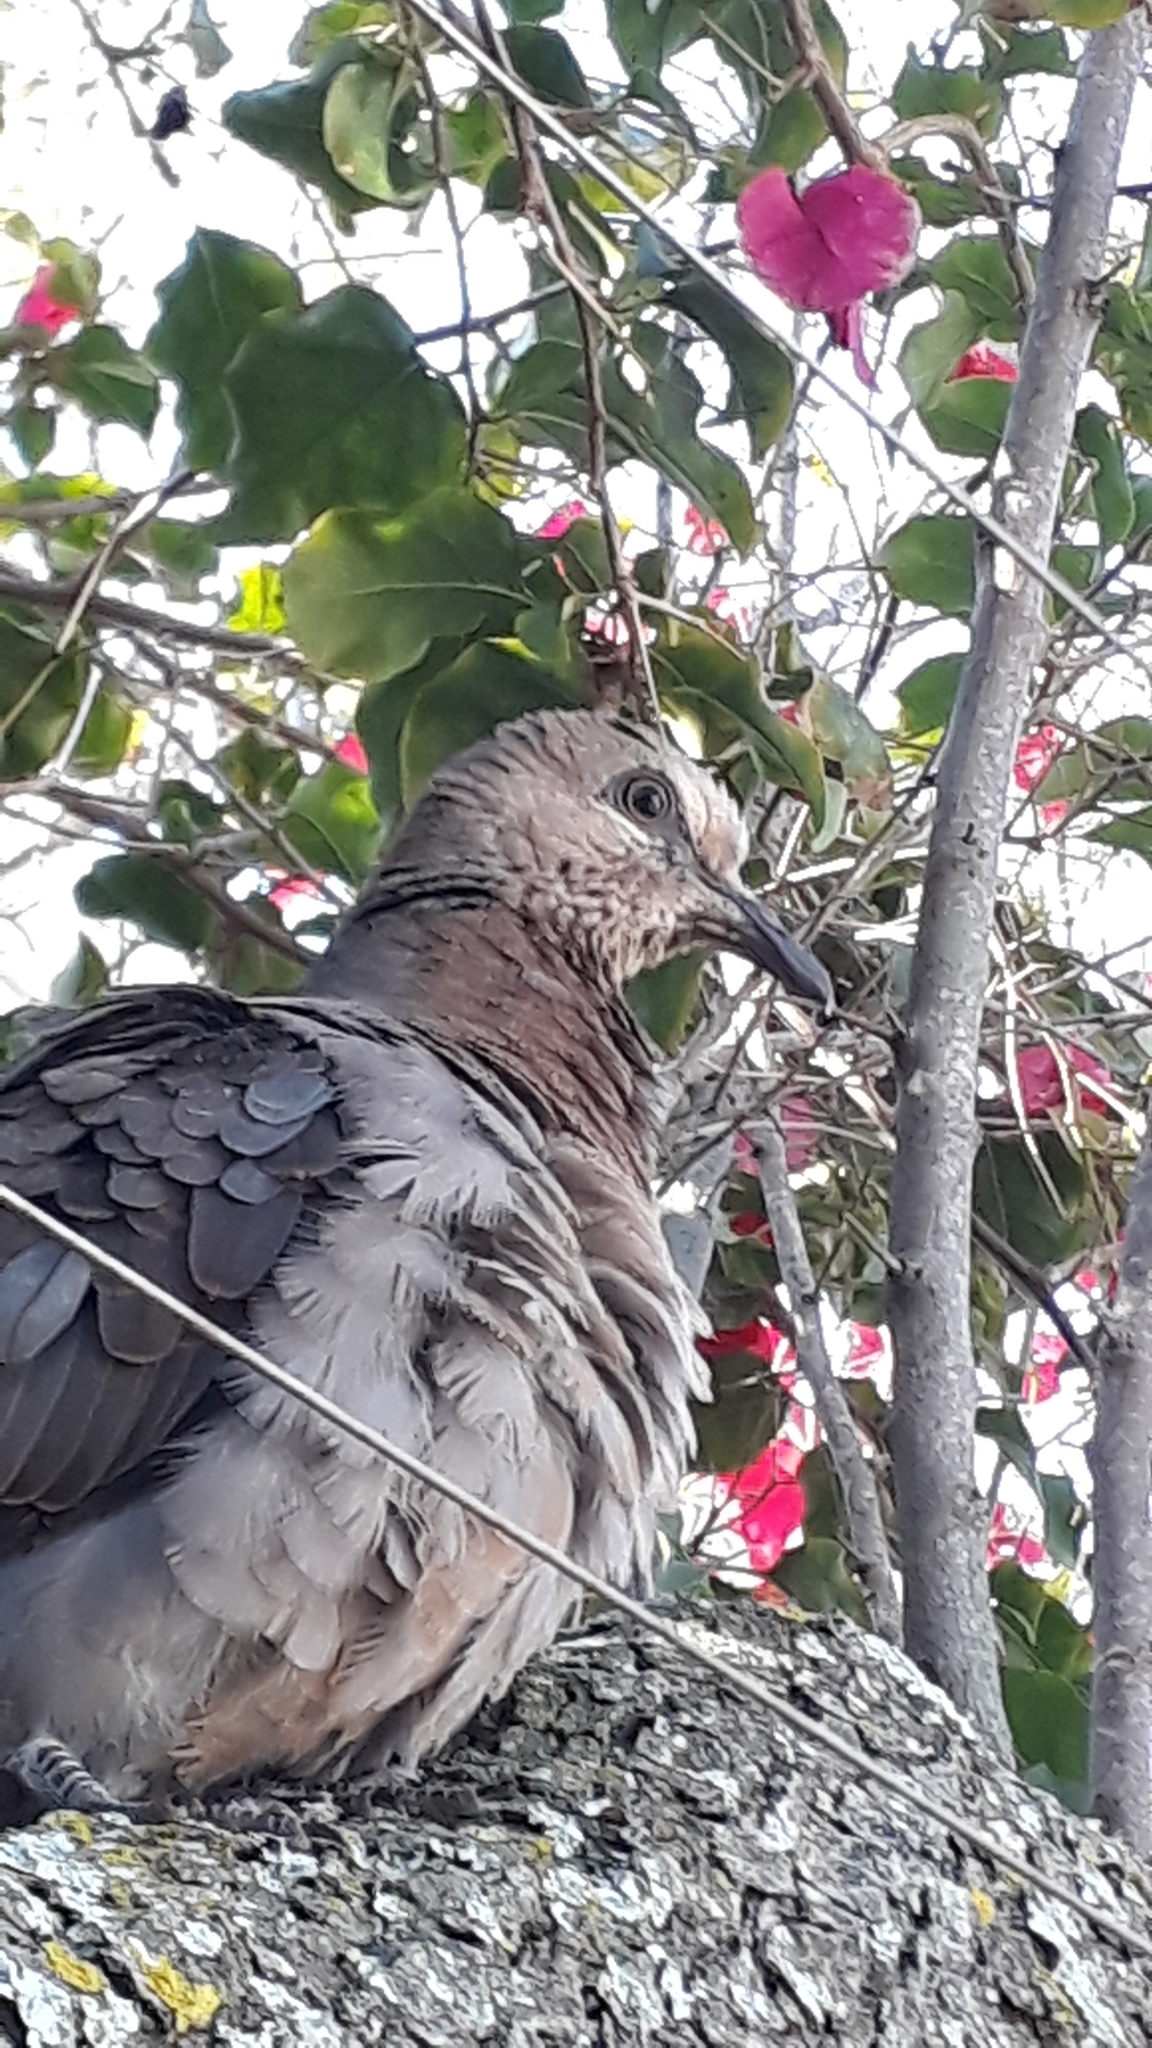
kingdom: Animalia
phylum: Chordata
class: Aves
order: Columbiformes
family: Columbidae
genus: Streptopelia
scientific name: Streptopelia semitorquata
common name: Red-eyed dove
